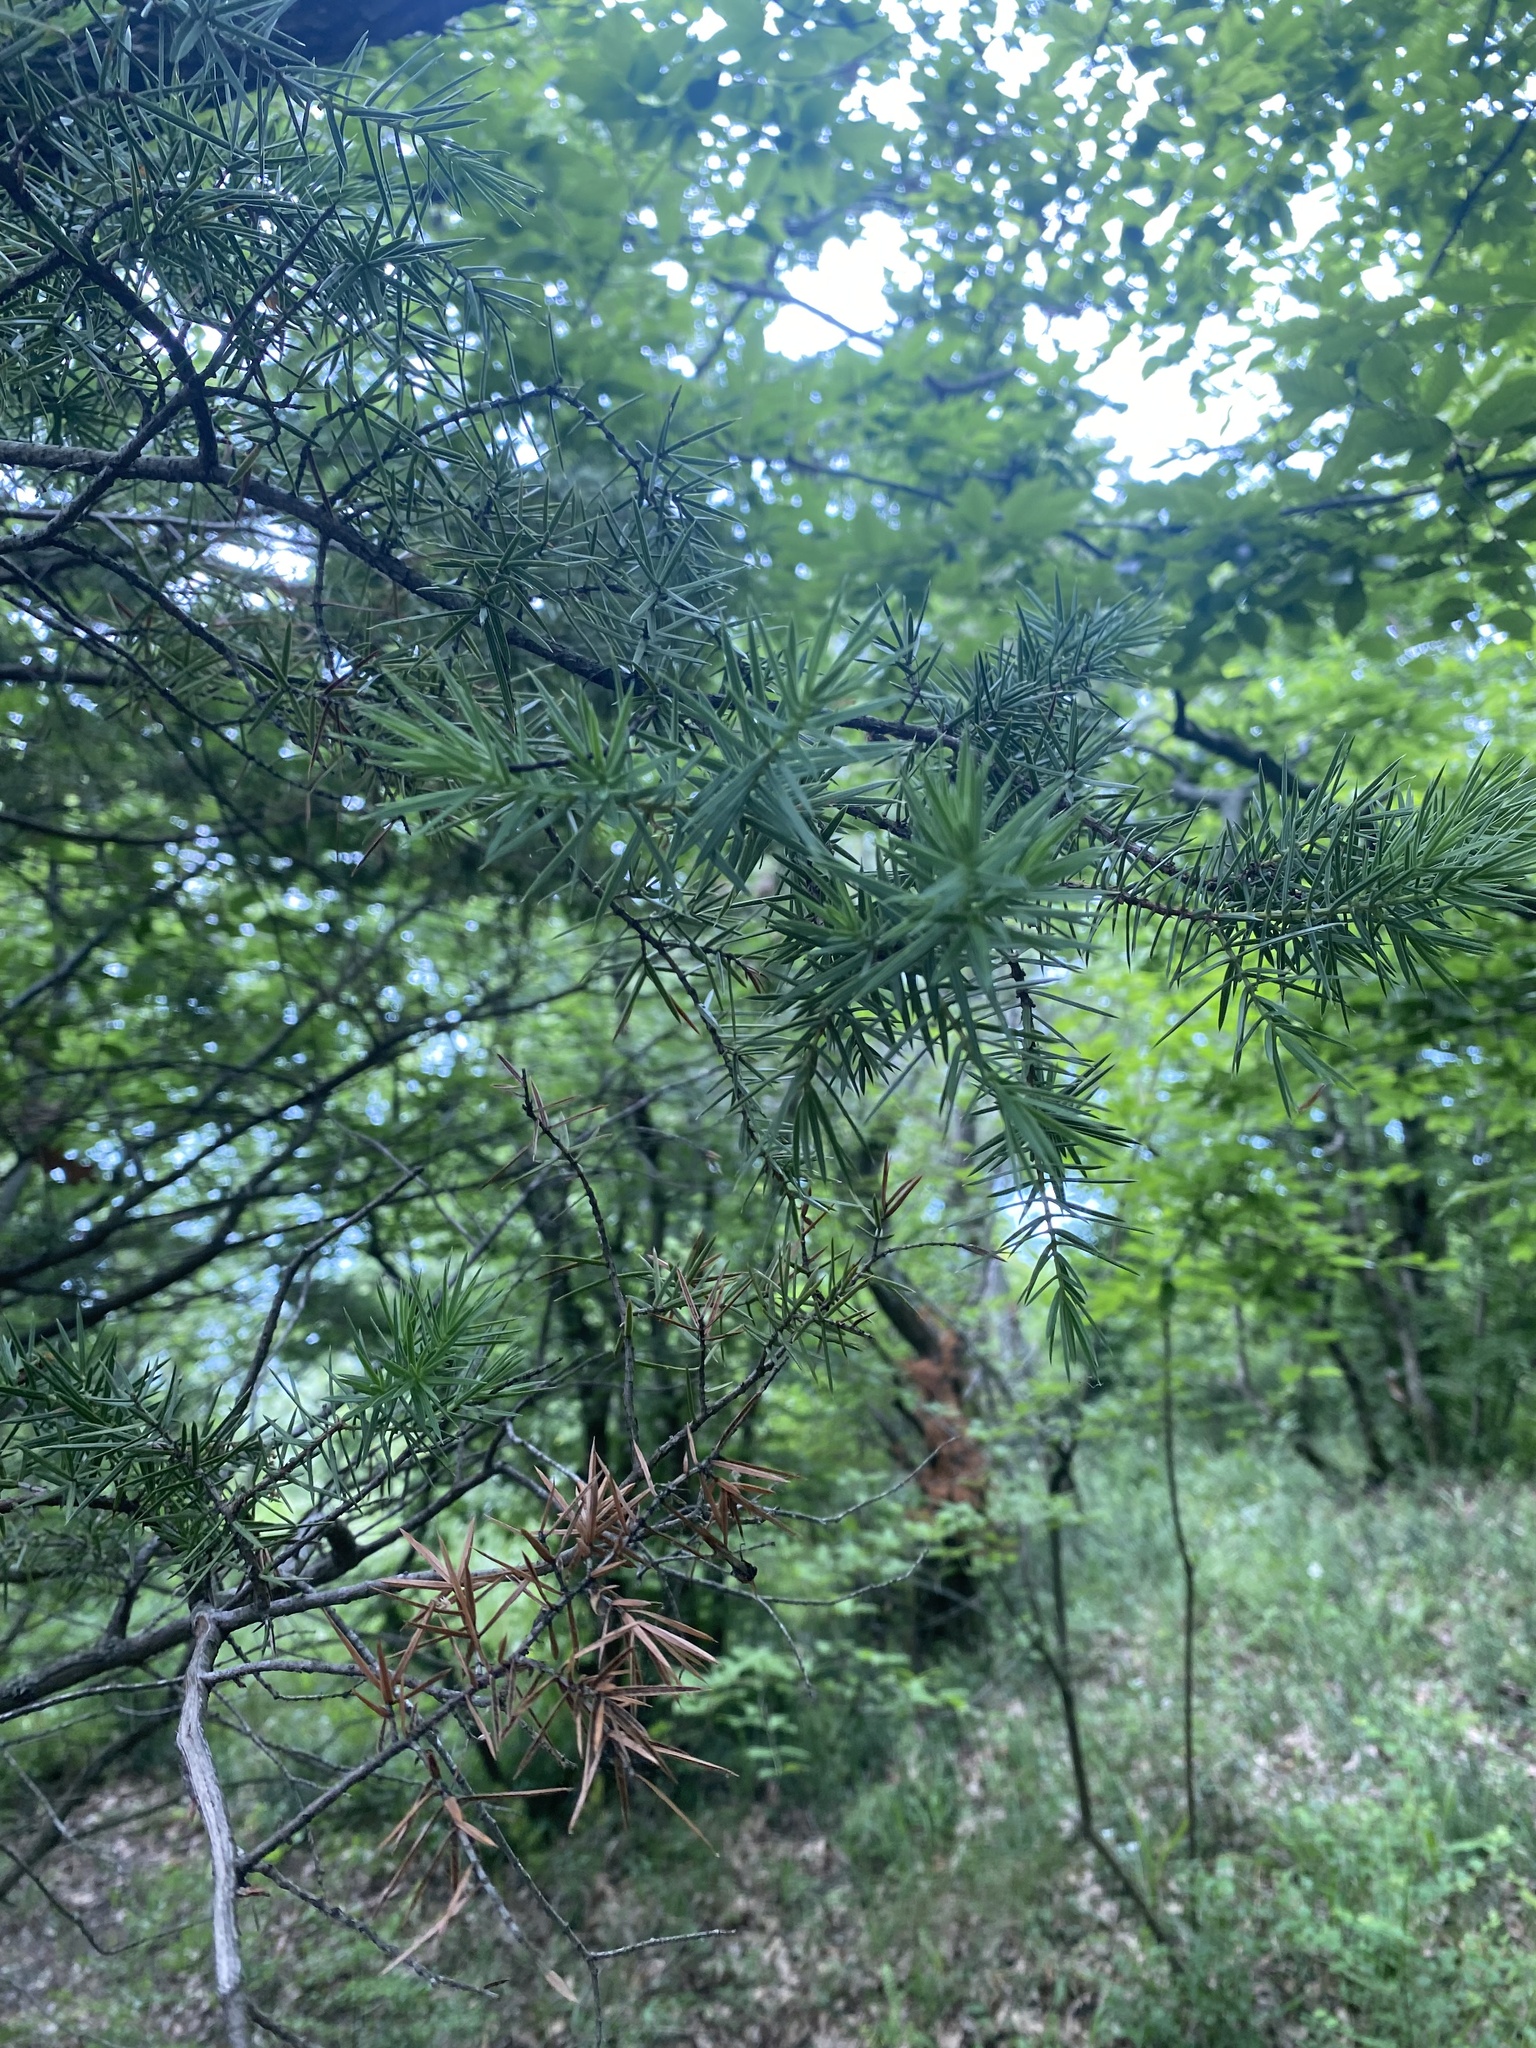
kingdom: Plantae
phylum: Tracheophyta
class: Pinopsida
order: Pinales
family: Cupressaceae
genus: Juniperus
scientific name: Juniperus oxycedrus
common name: Prickly juniper
